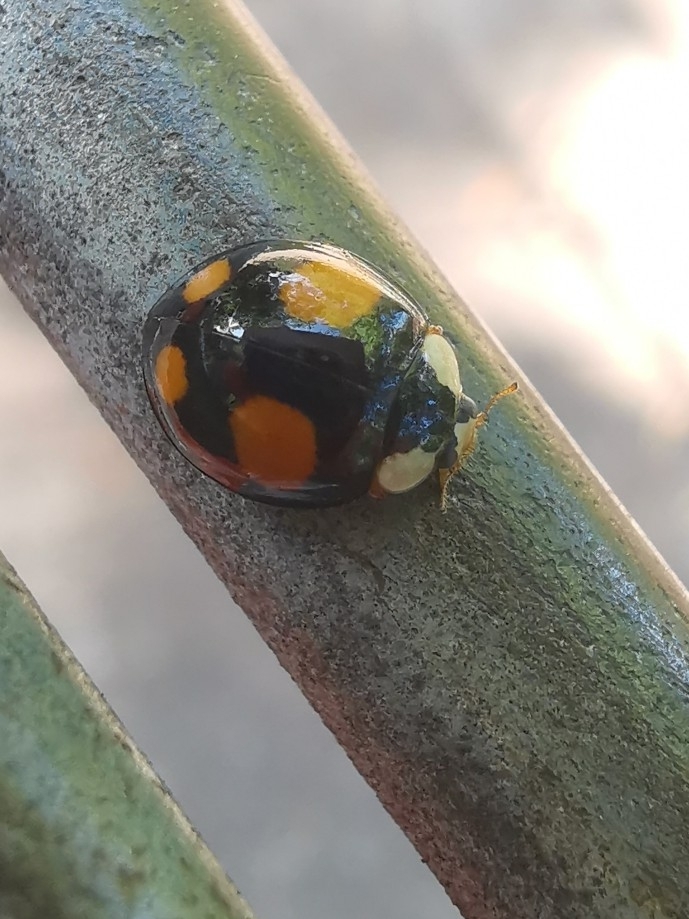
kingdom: Animalia
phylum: Arthropoda
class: Insecta
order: Coleoptera
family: Coccinellidae
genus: Harmonia
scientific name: Harmonia axyridis
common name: Harlequin ladybird
